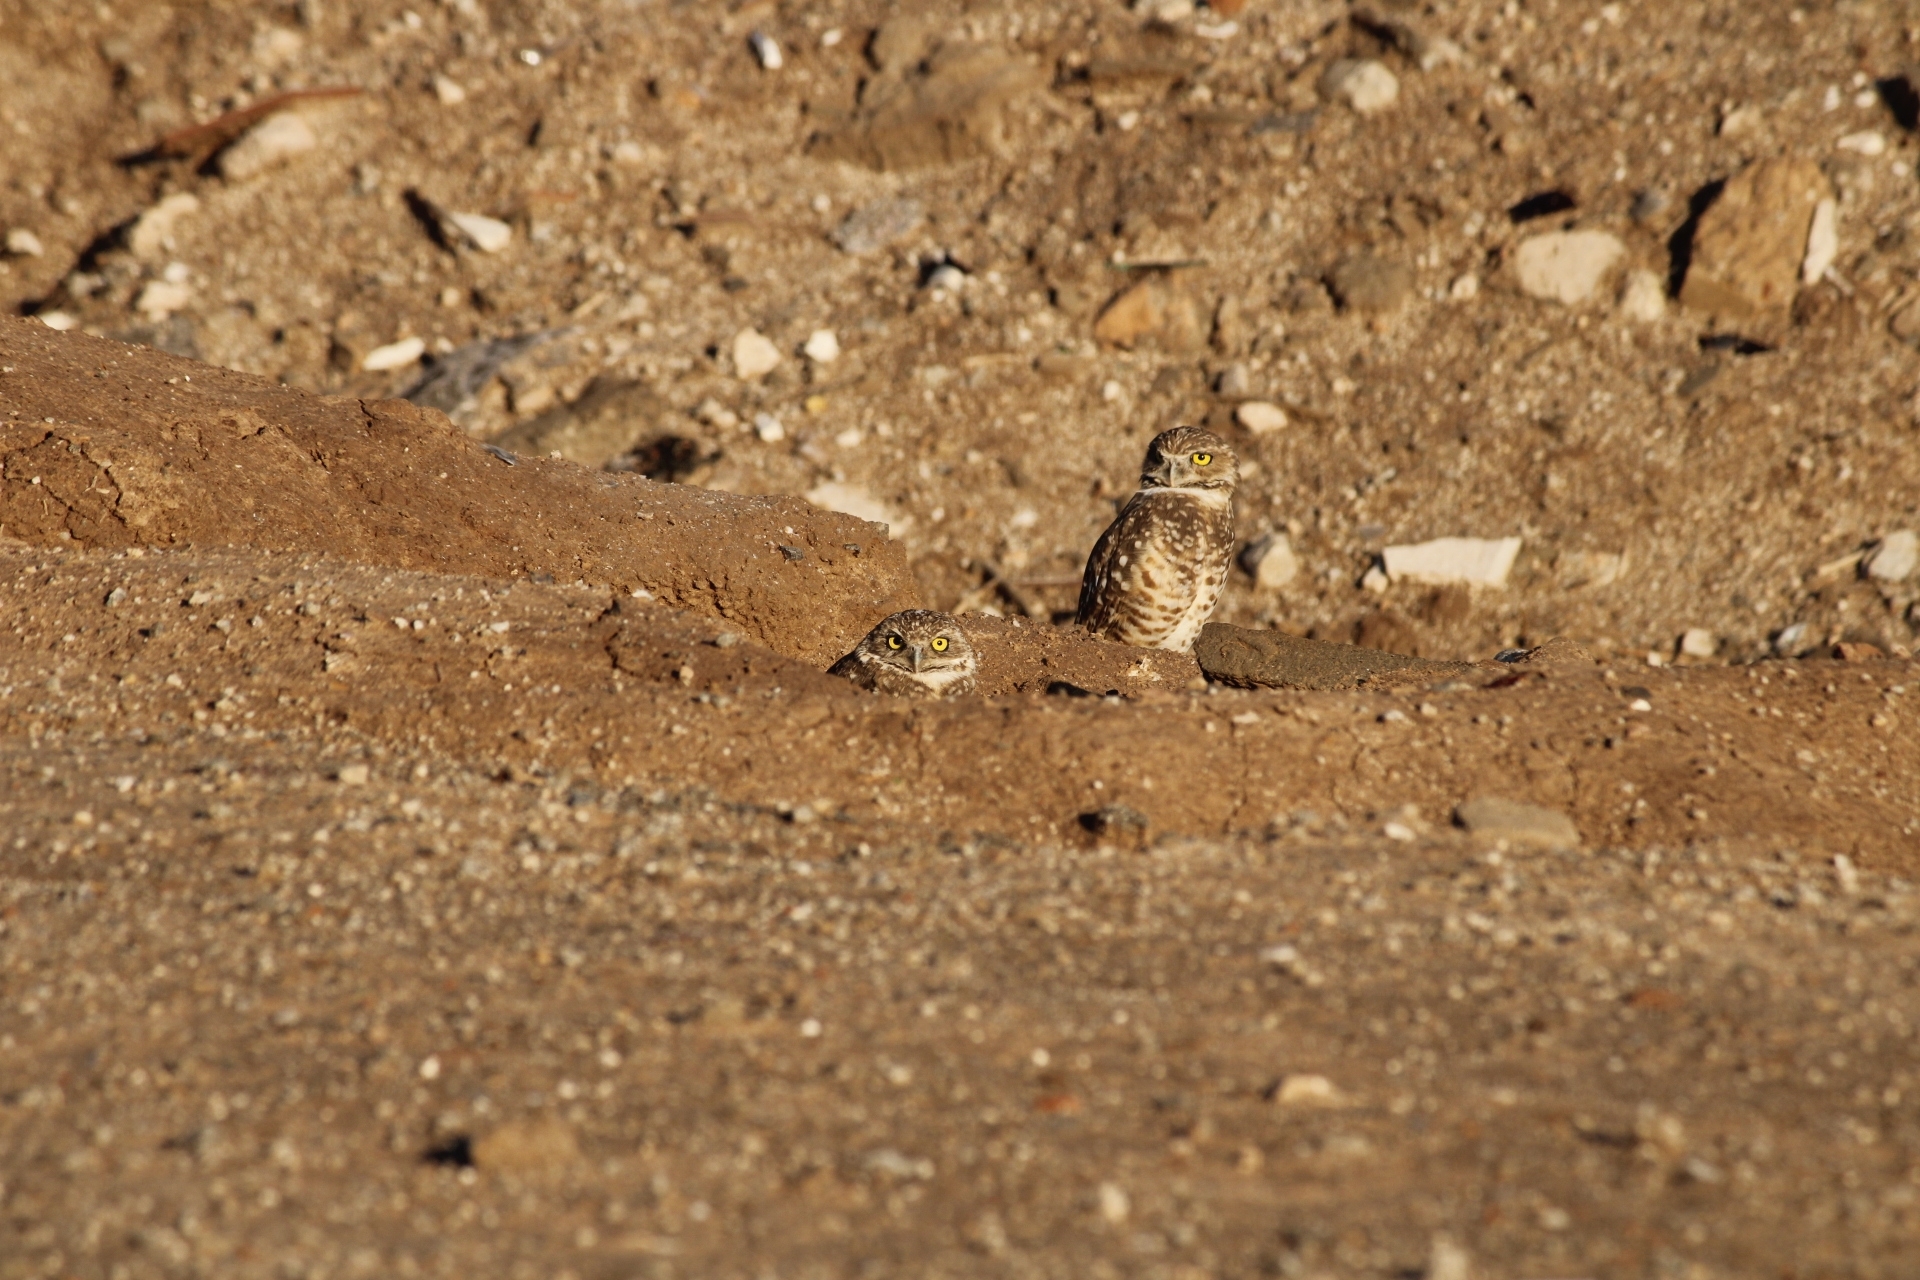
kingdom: Animalia
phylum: Chordata
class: Aves
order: Strigiformes
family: Strigidae
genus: Athene
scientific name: Athene cunicularia
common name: Burrowing owl
